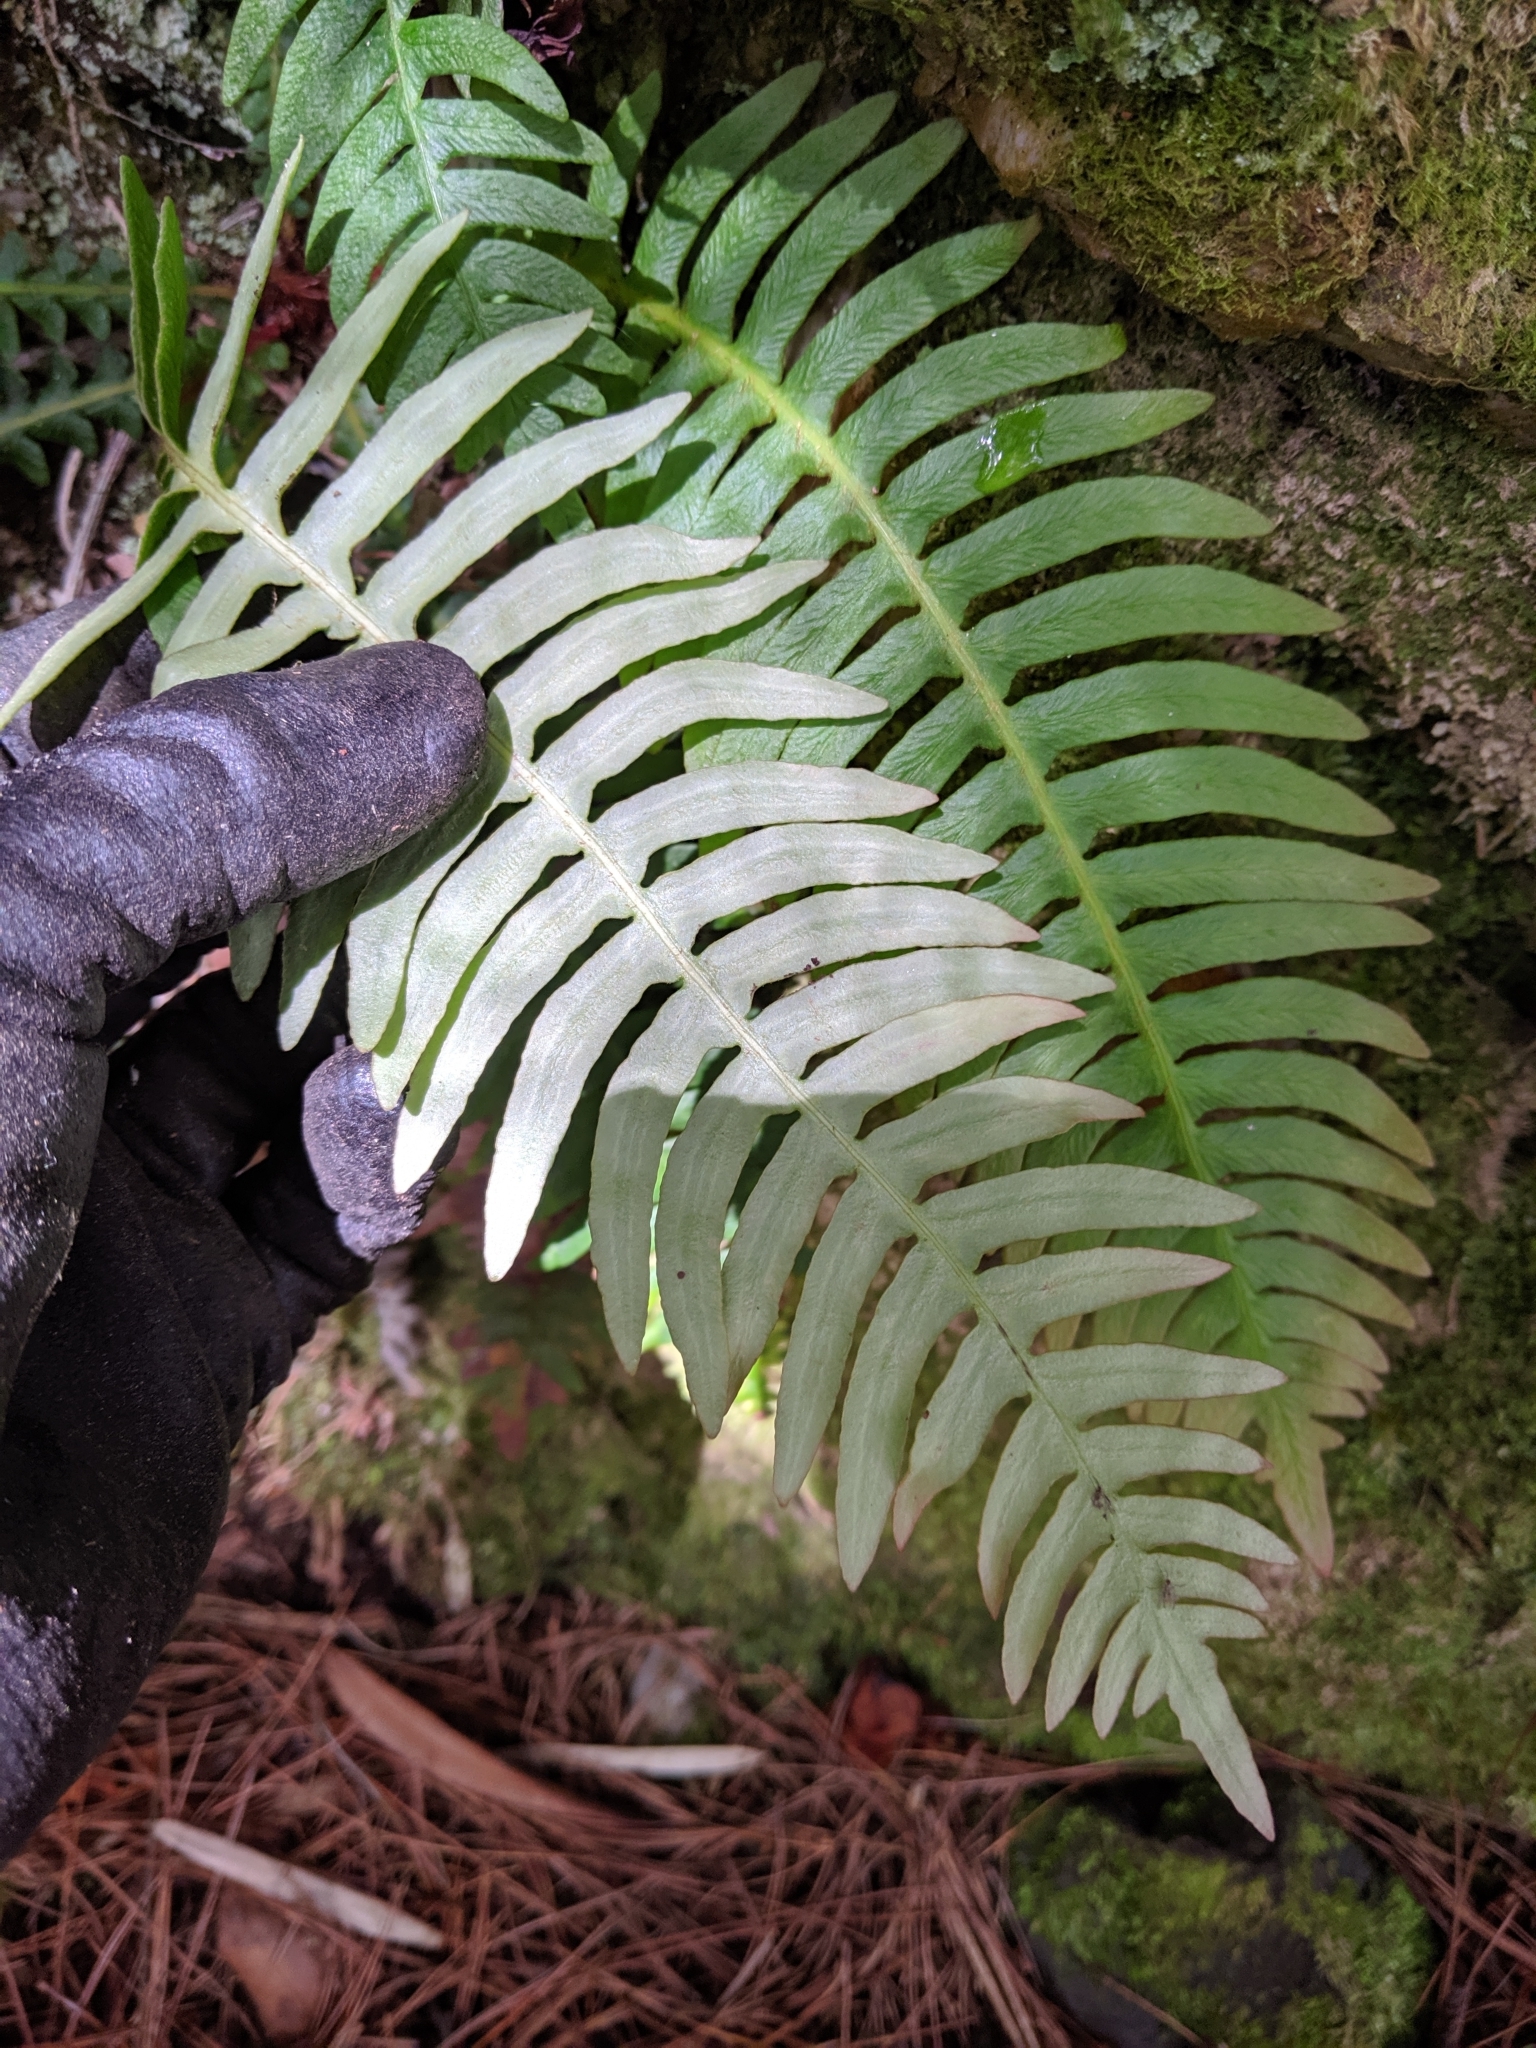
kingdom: Plantae
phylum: Tracheophyta
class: Polypodiopsida
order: Polypodiales
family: Blechnaceae
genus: Spicantopsis
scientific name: Spicantopsis hancockii
